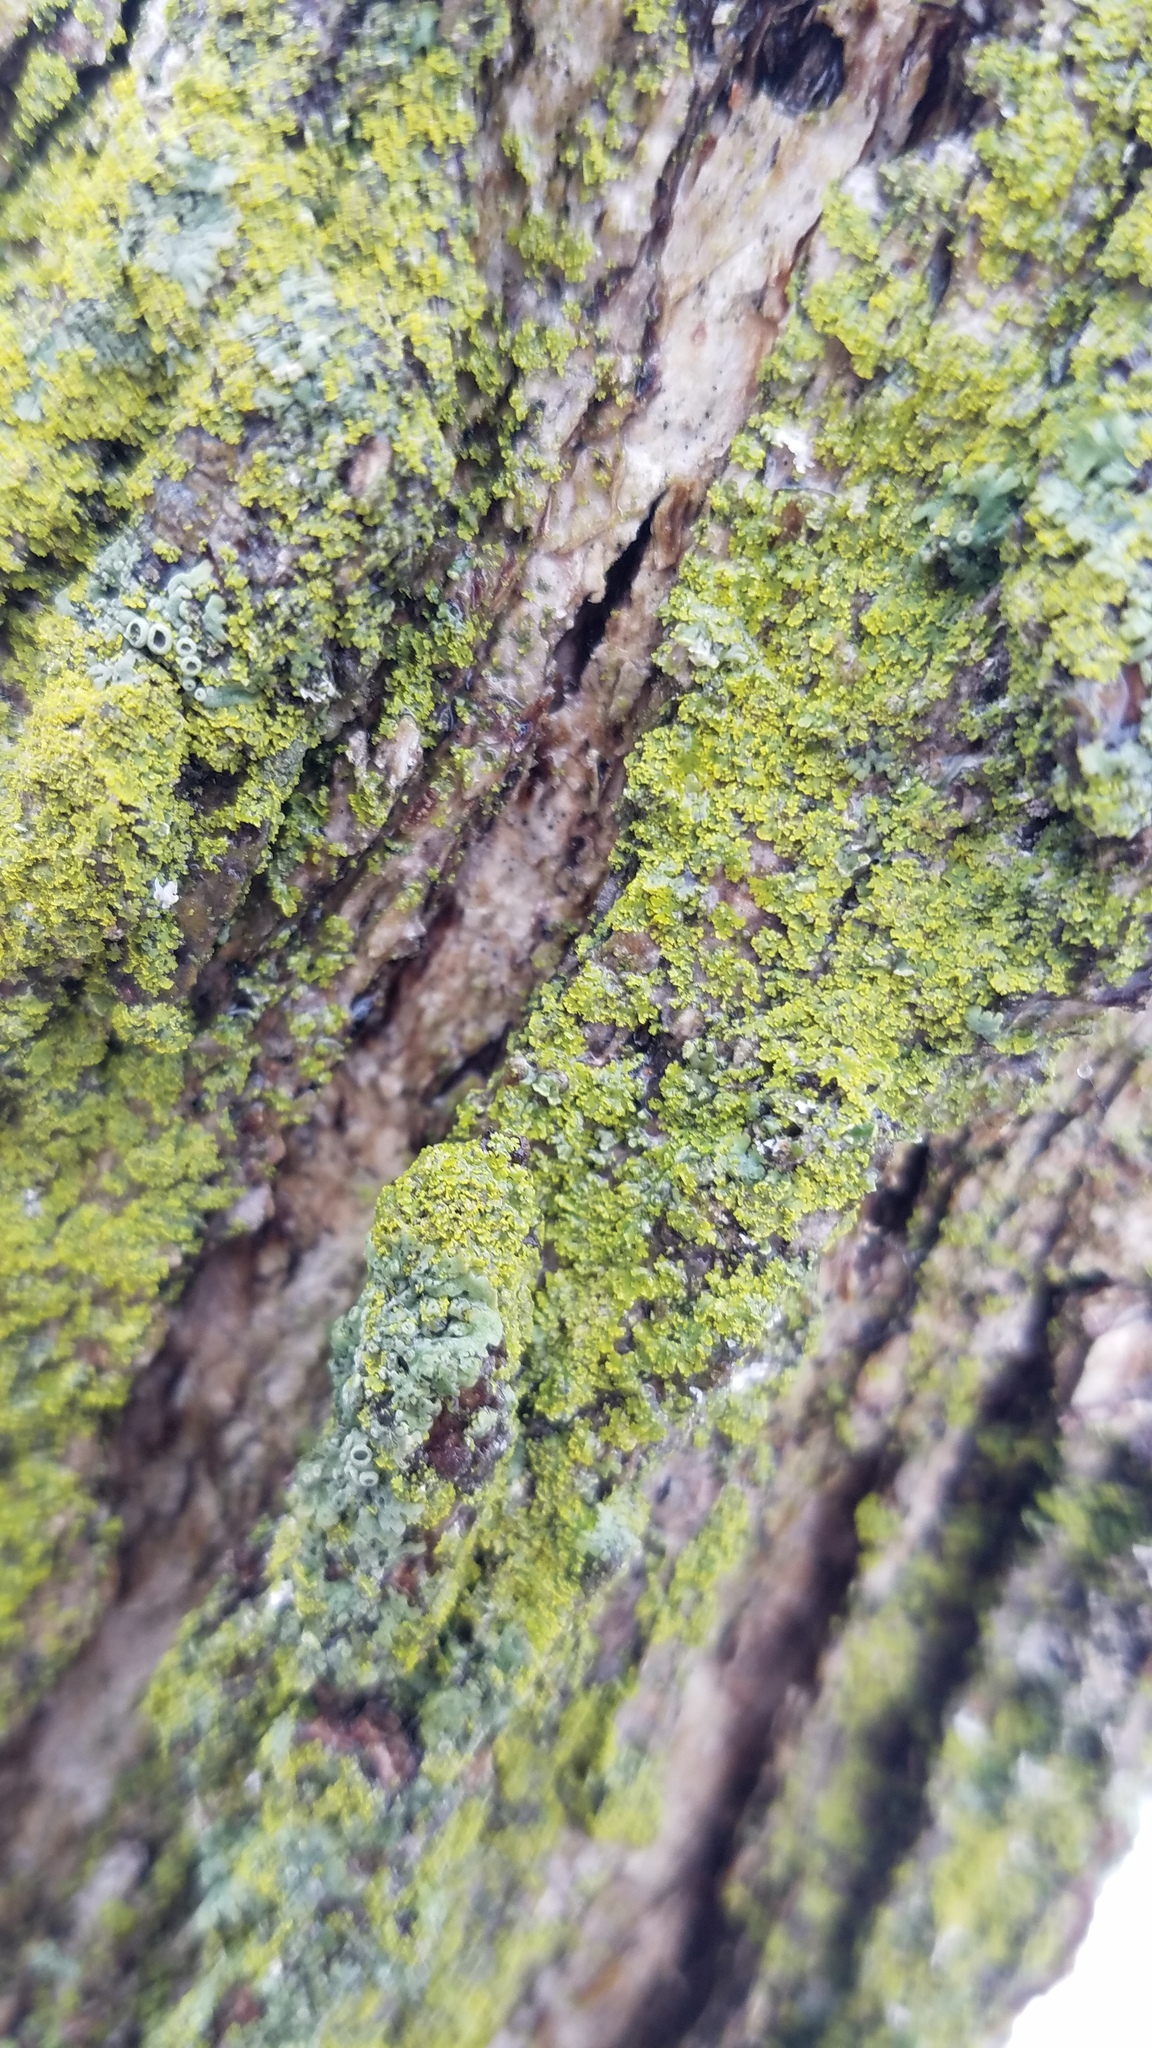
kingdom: Fungi
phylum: Ascomycota
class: Candelariomycetes
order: Candelariales
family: Candelariaceae
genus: Candelaria
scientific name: Candelaria concolor
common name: Candleflame lichen
